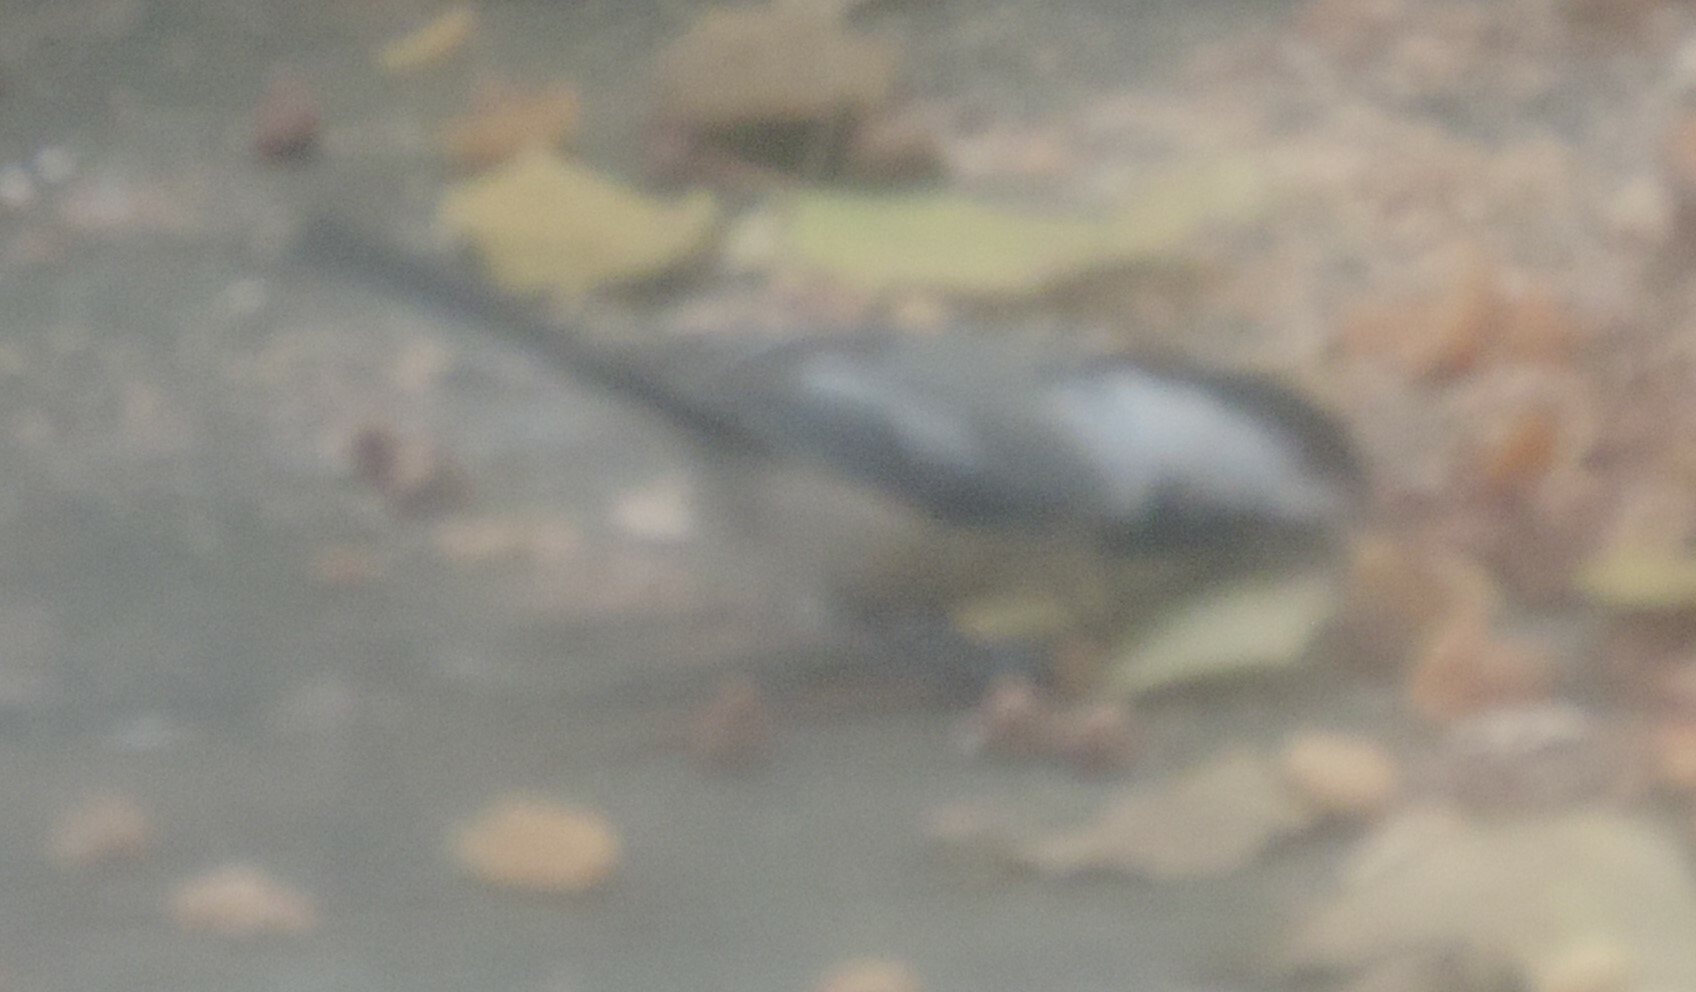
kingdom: Animalia
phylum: Chordata
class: Aves
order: Passeriformes
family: Paridae
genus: Poecile
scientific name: Poecile atricapillus
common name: Black-capped chickadee
